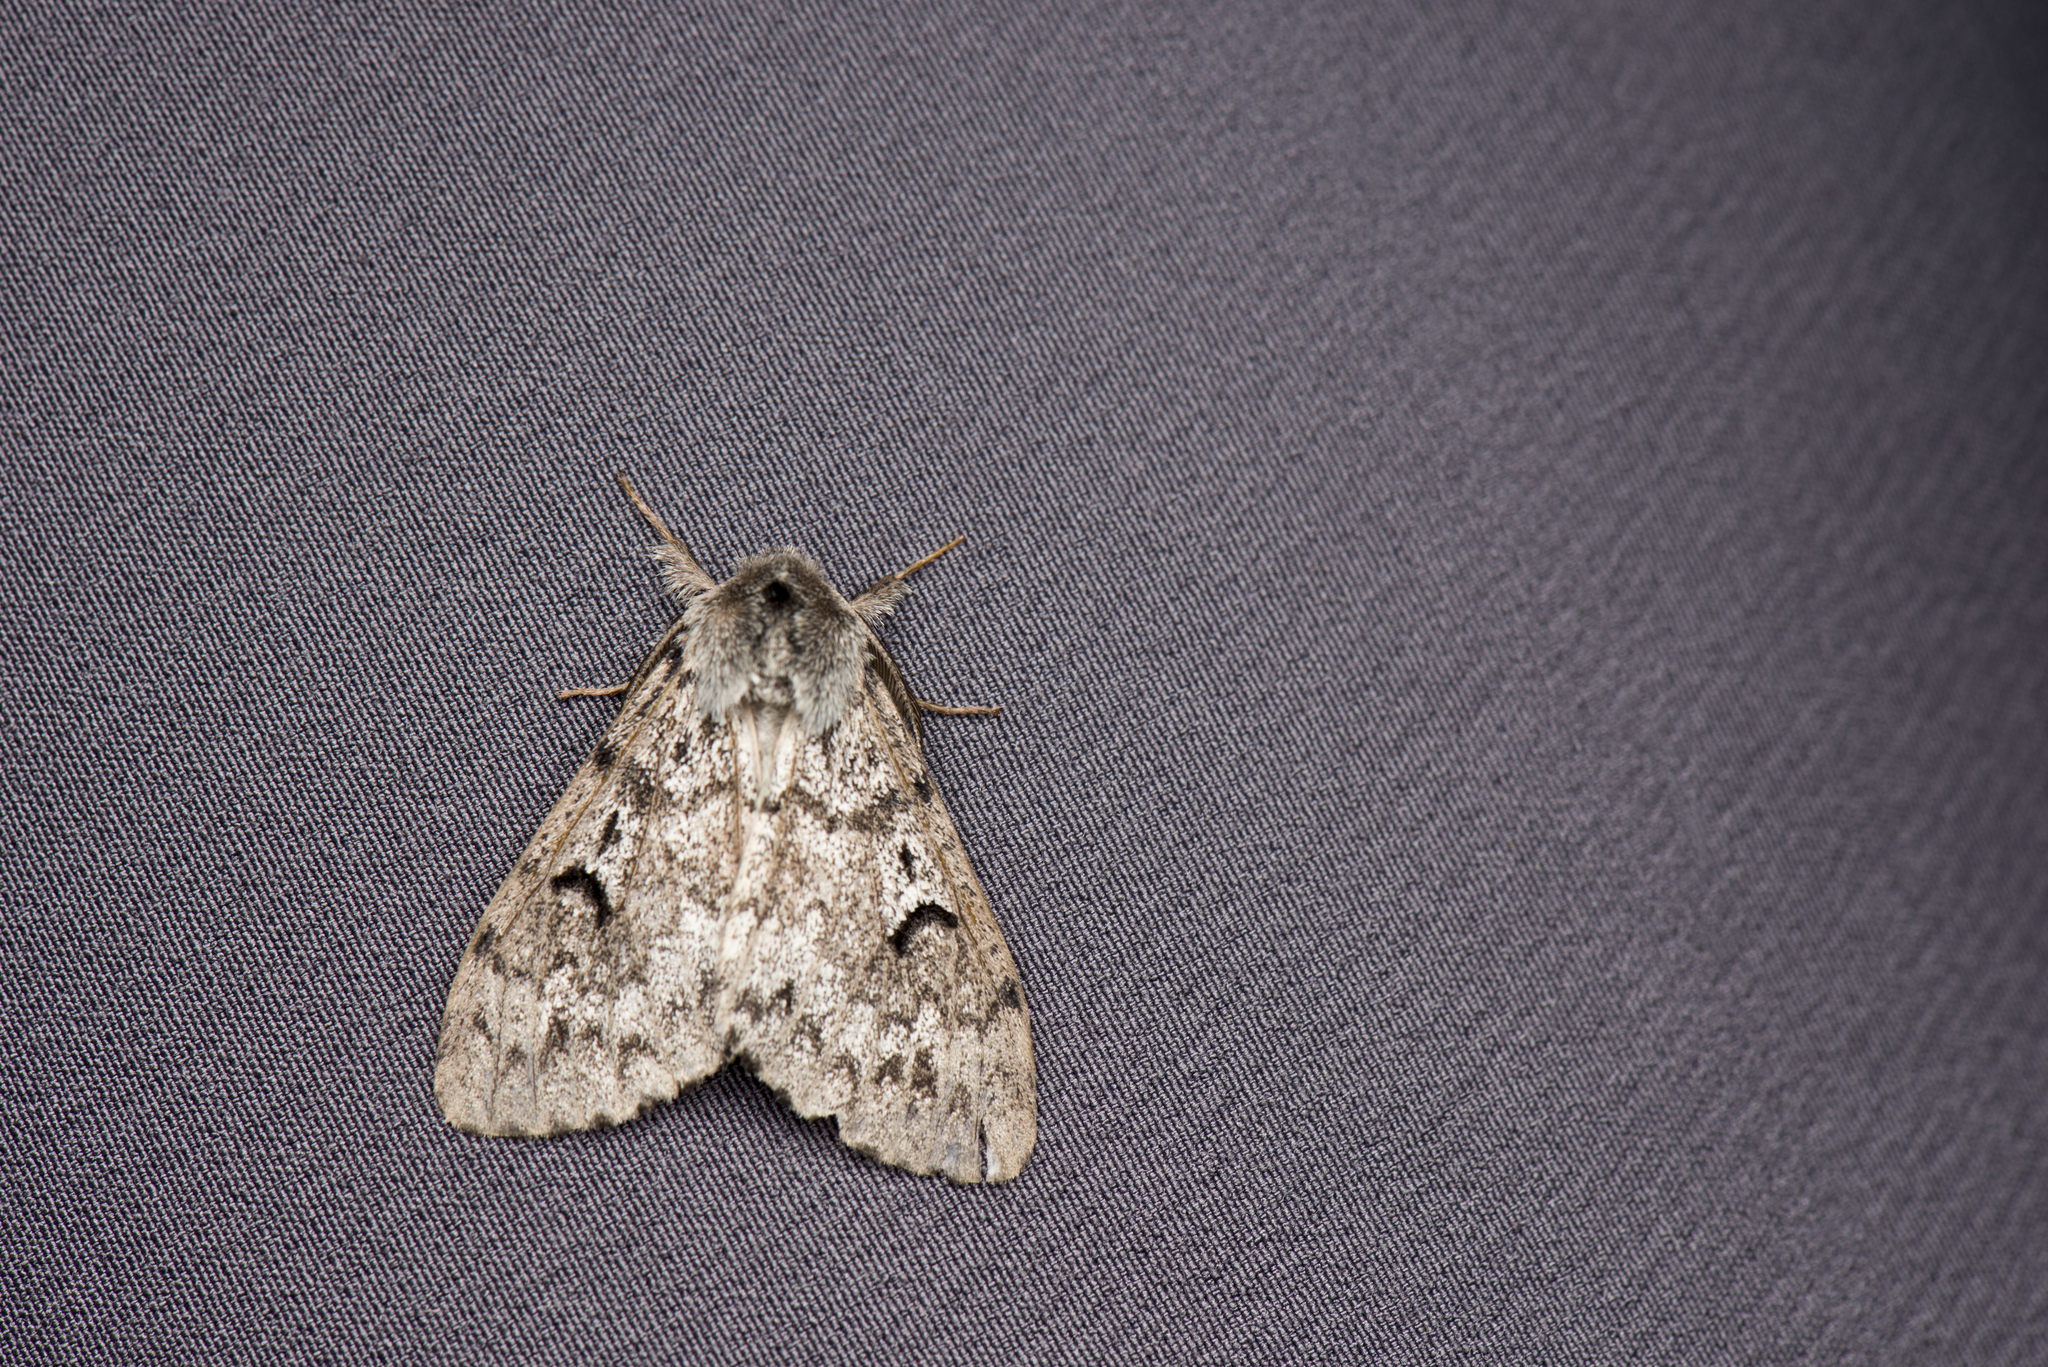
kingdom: Animalia
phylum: Arthropoda
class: Insecta
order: Lepidoptera
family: Erebidae
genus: Lymantria
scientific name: Lymantria umbrifera
